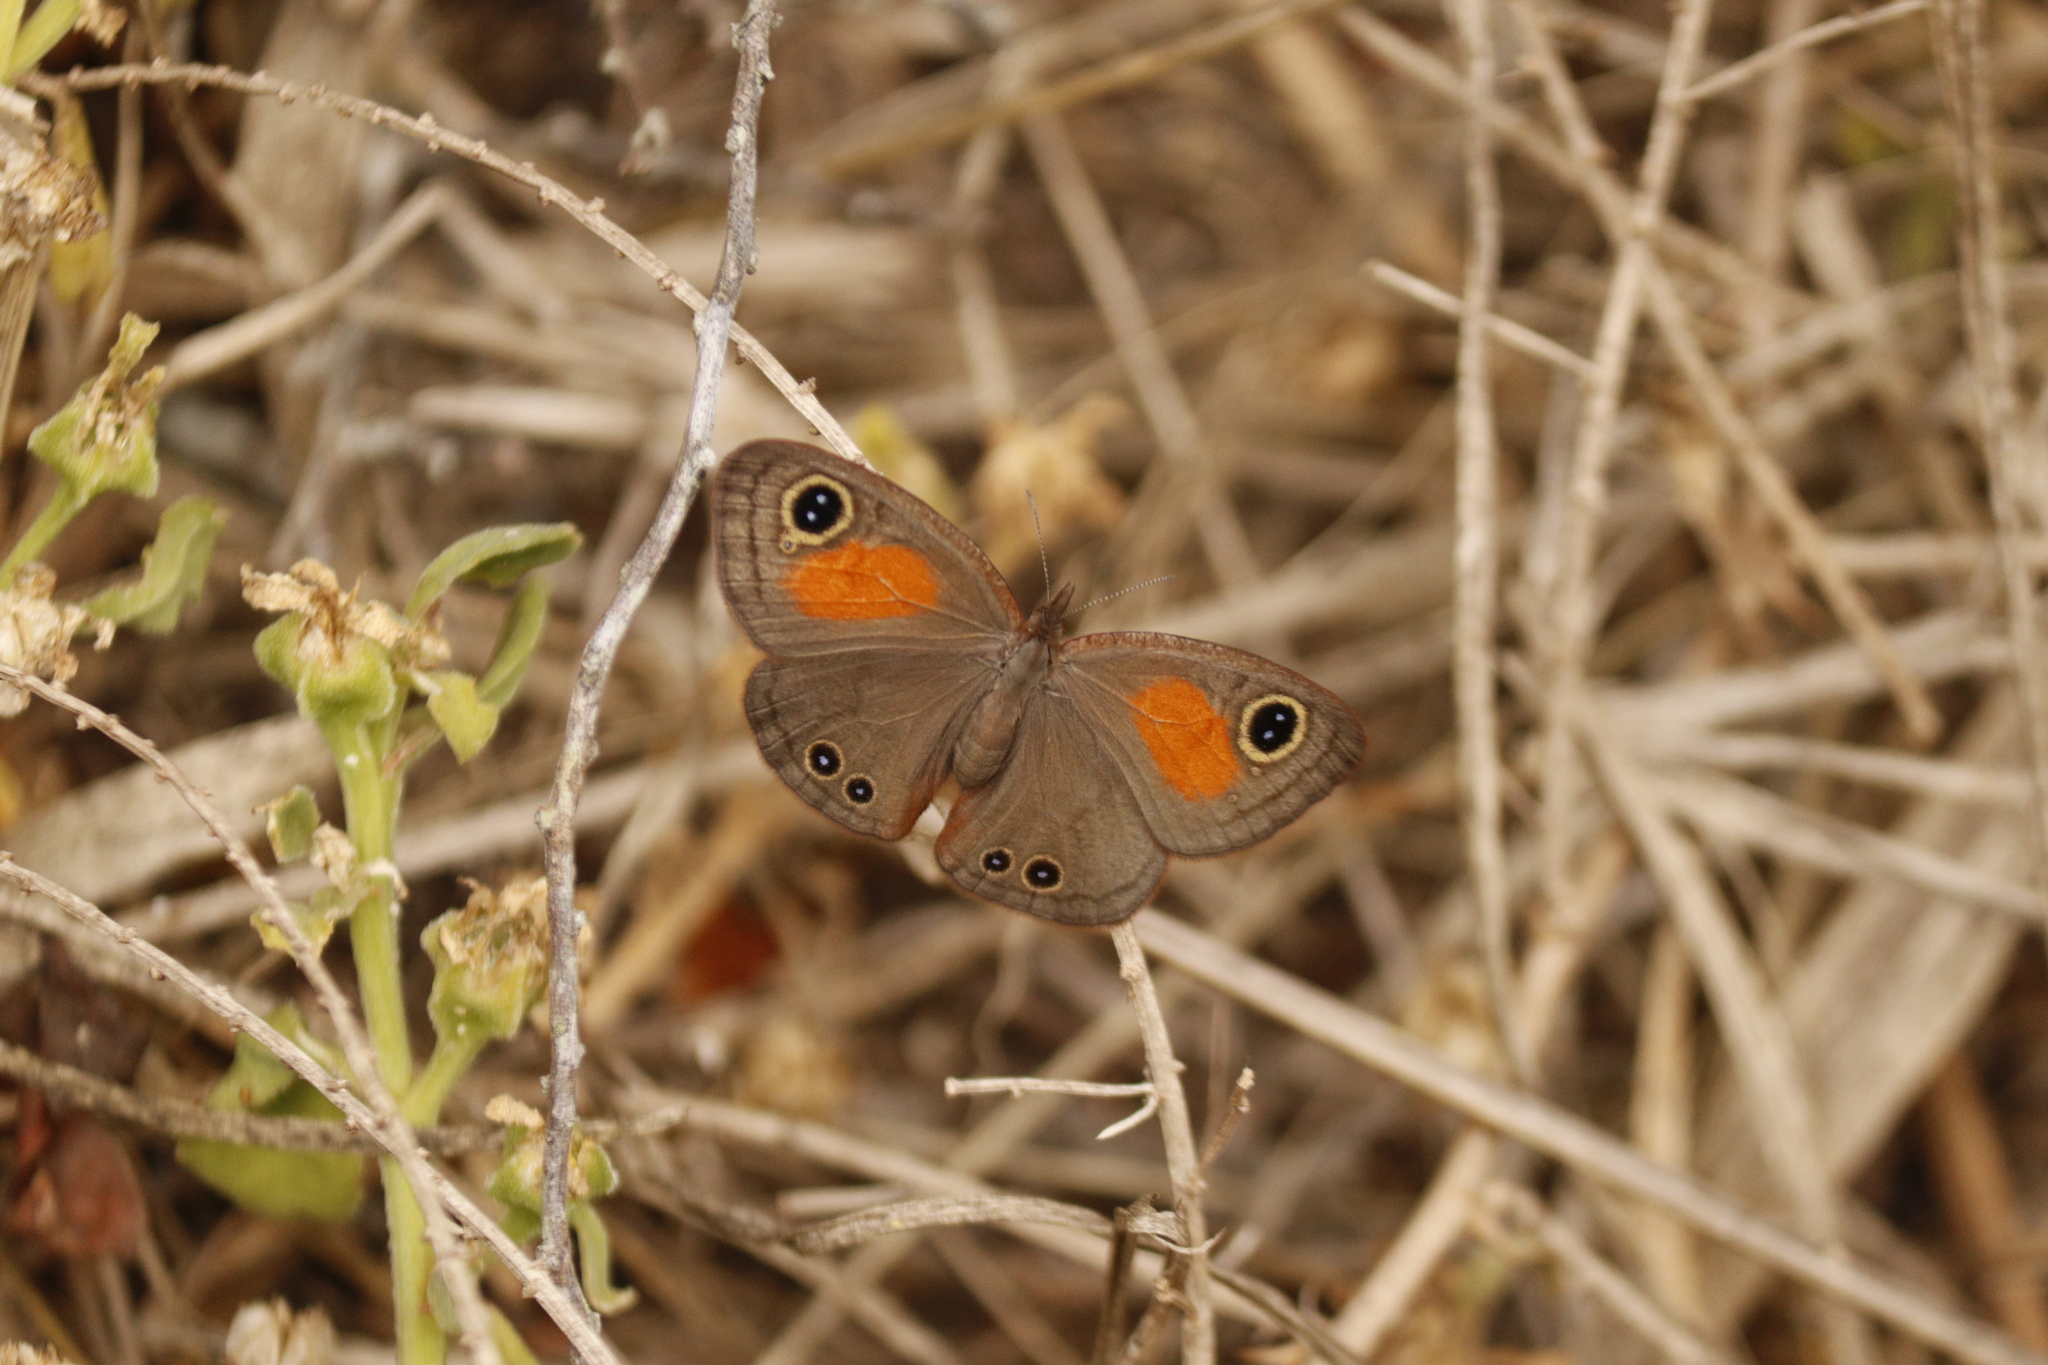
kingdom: Animalia
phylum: Arthropoda
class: Insecta
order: Lepidoptera
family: Nymphalidae
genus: Cassionympha
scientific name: Cassionympha cassius
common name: Rainforest brown
